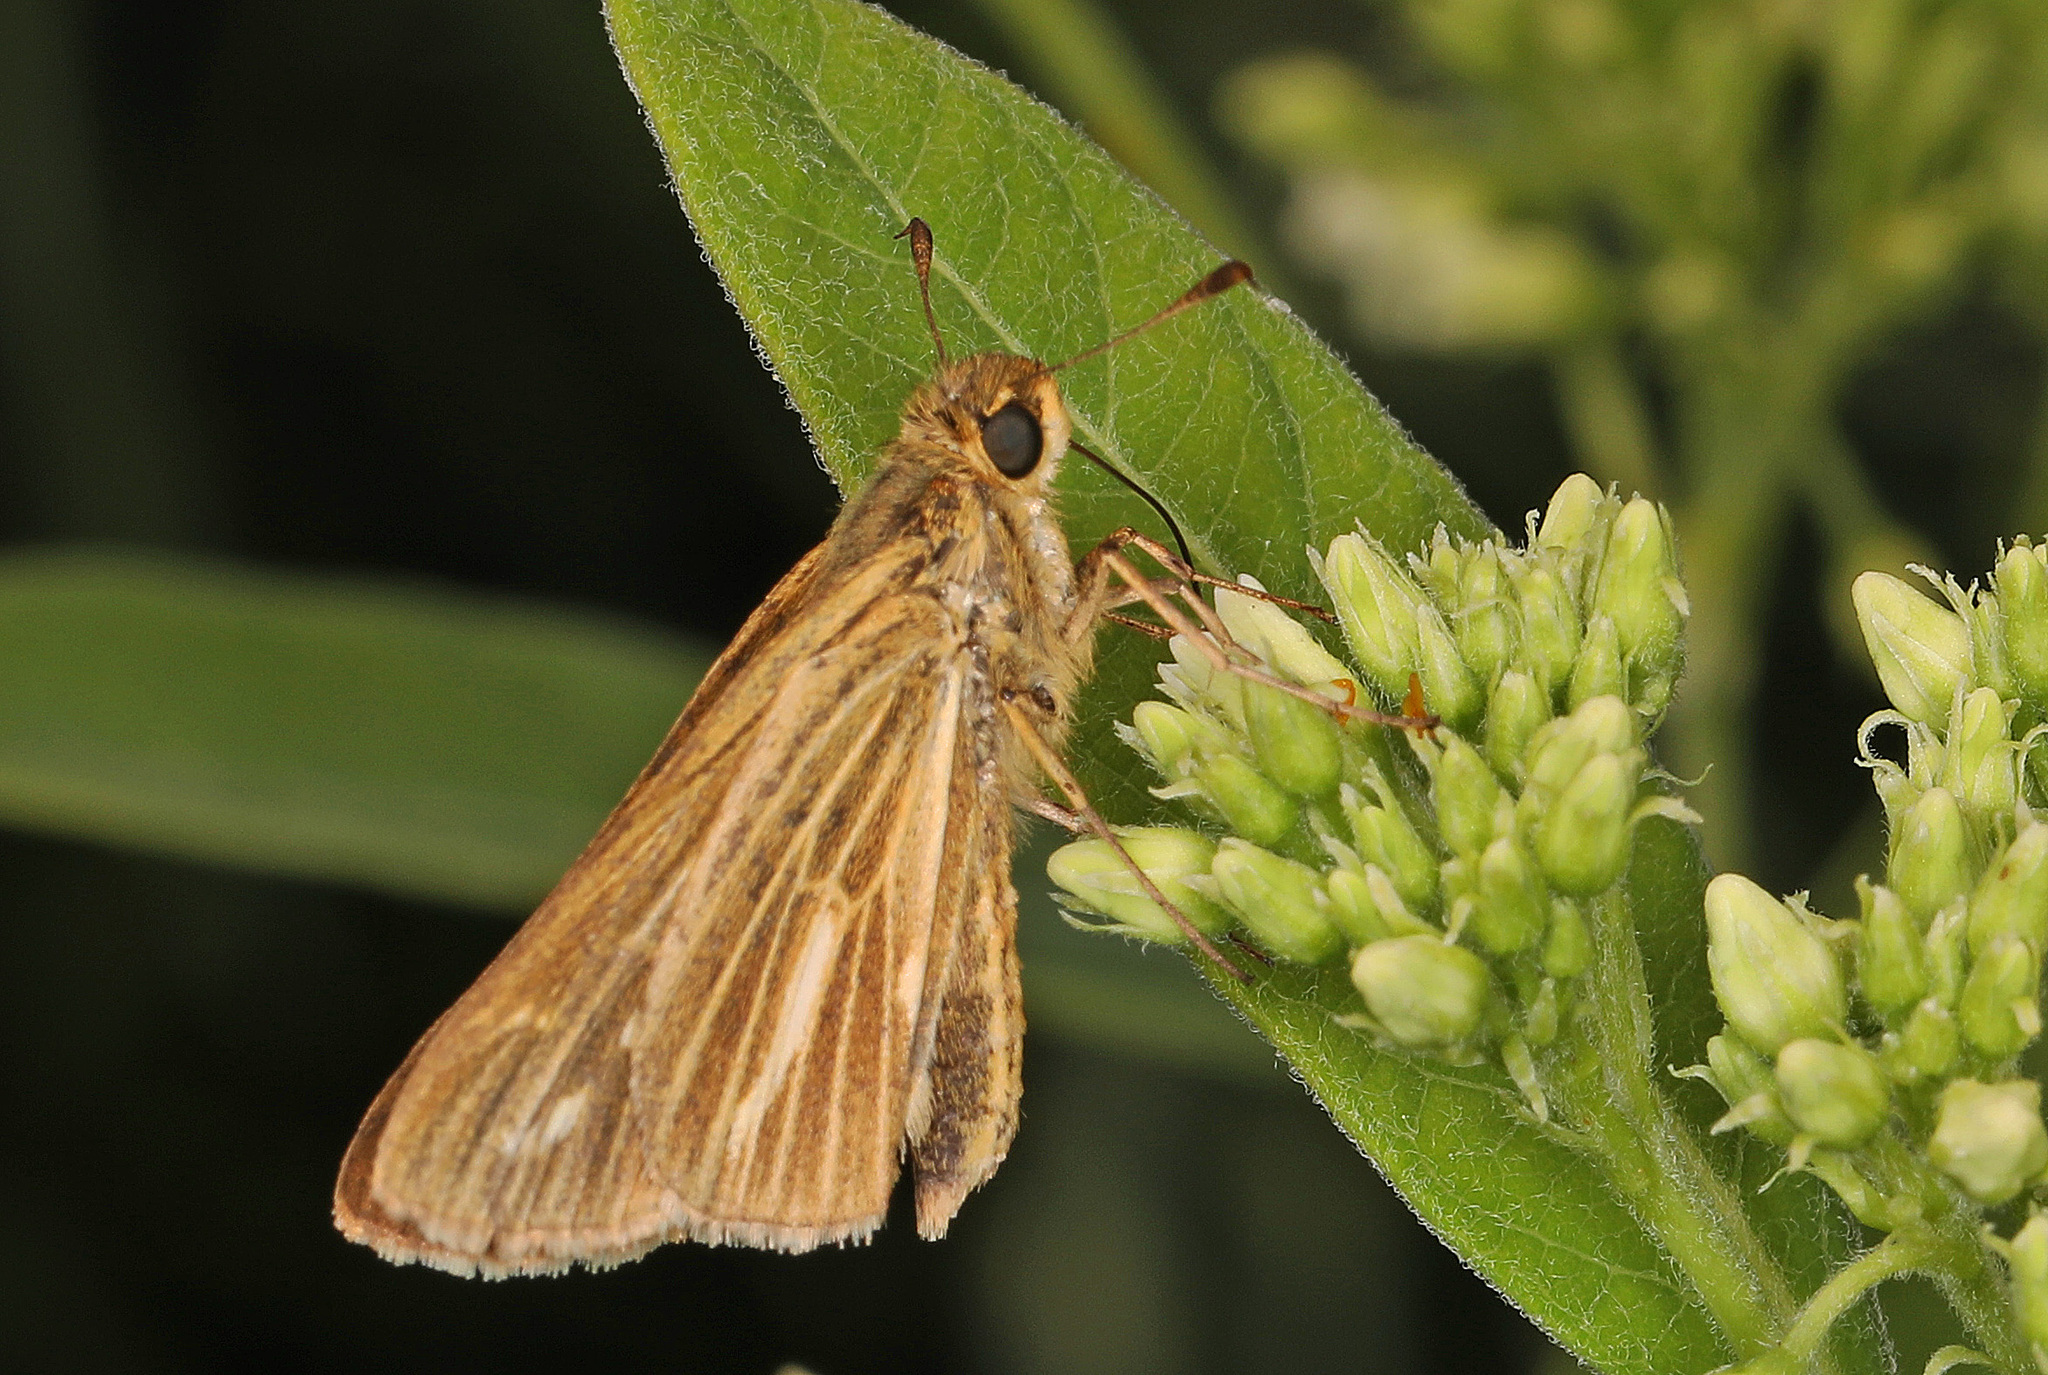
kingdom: Animalia
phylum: Arthropoda
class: Insecta
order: Lepidoptera
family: Hesperiidae
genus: Panoquina
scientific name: Panoquina panoquin
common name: Salt marsh skipper
